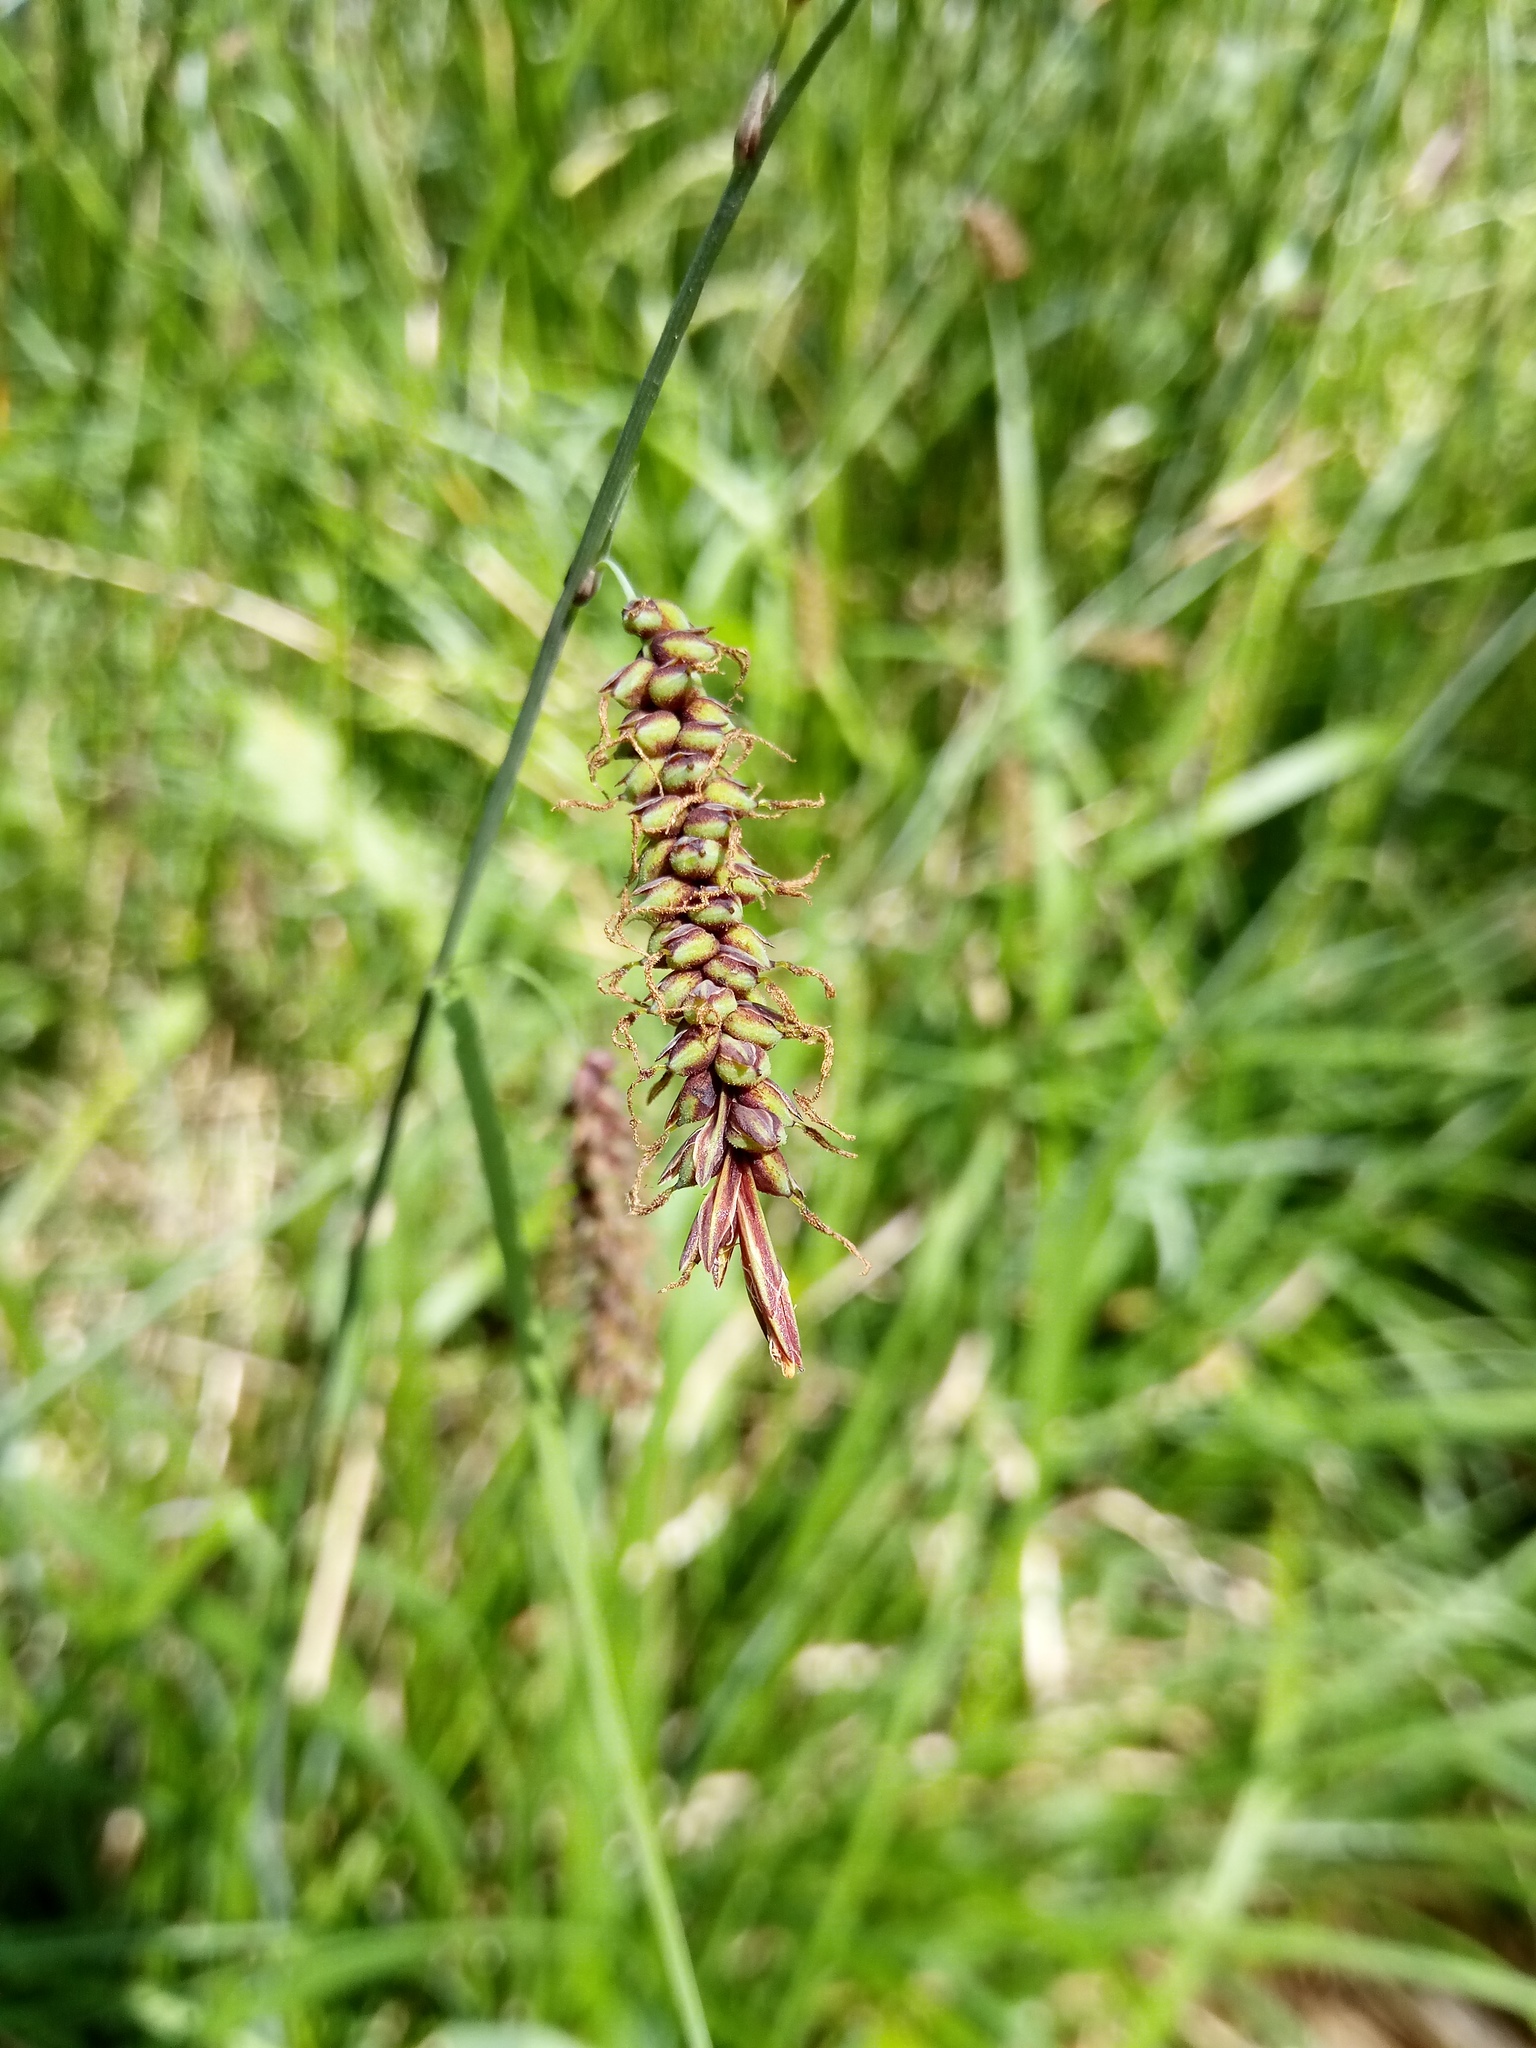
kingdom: Plantae
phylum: Tracheophyta
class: Liliopsida
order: Poales
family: Cyperaceae
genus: Carex
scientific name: Carex flacca
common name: Glaucous sedge
